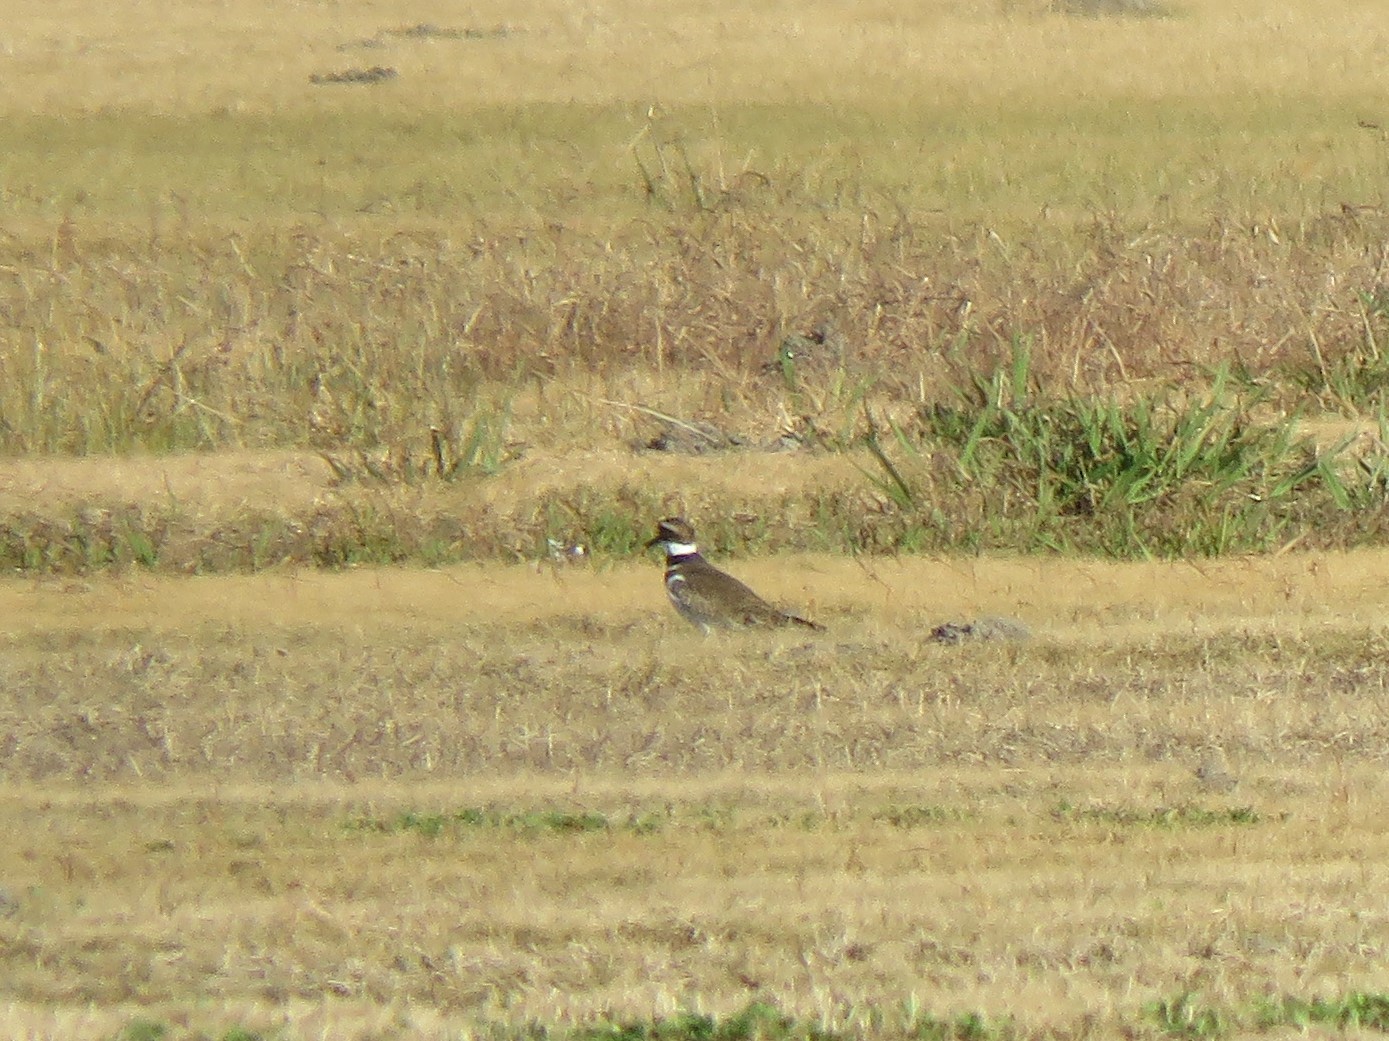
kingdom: Animalia
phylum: Chordata
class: Aves
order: Charadriiformes
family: Charadriidae
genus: Charadrius
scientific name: Charadrius vociferus
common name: Killdeer
